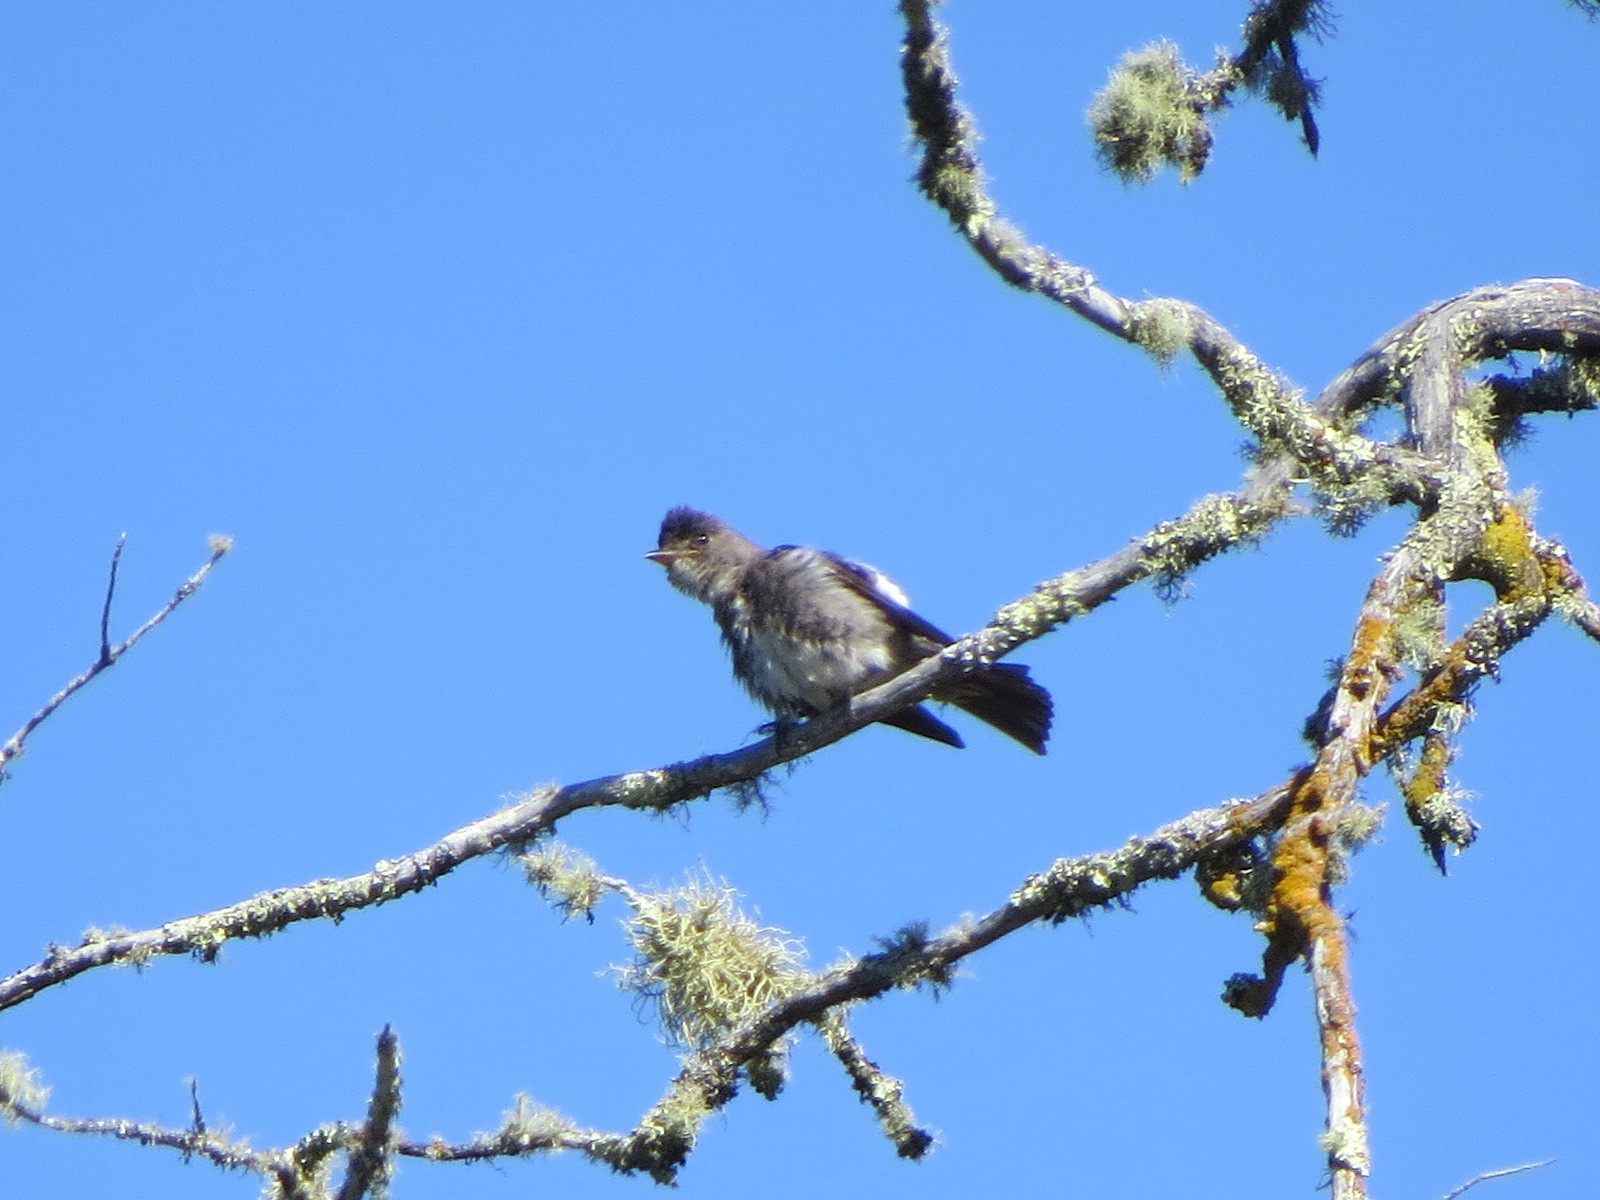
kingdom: Animalia
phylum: Chordata
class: Aves
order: Passeriformes
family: Tyrannidae
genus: Contopus
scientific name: Contopus cooperi
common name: Olive-sided flycatcher
